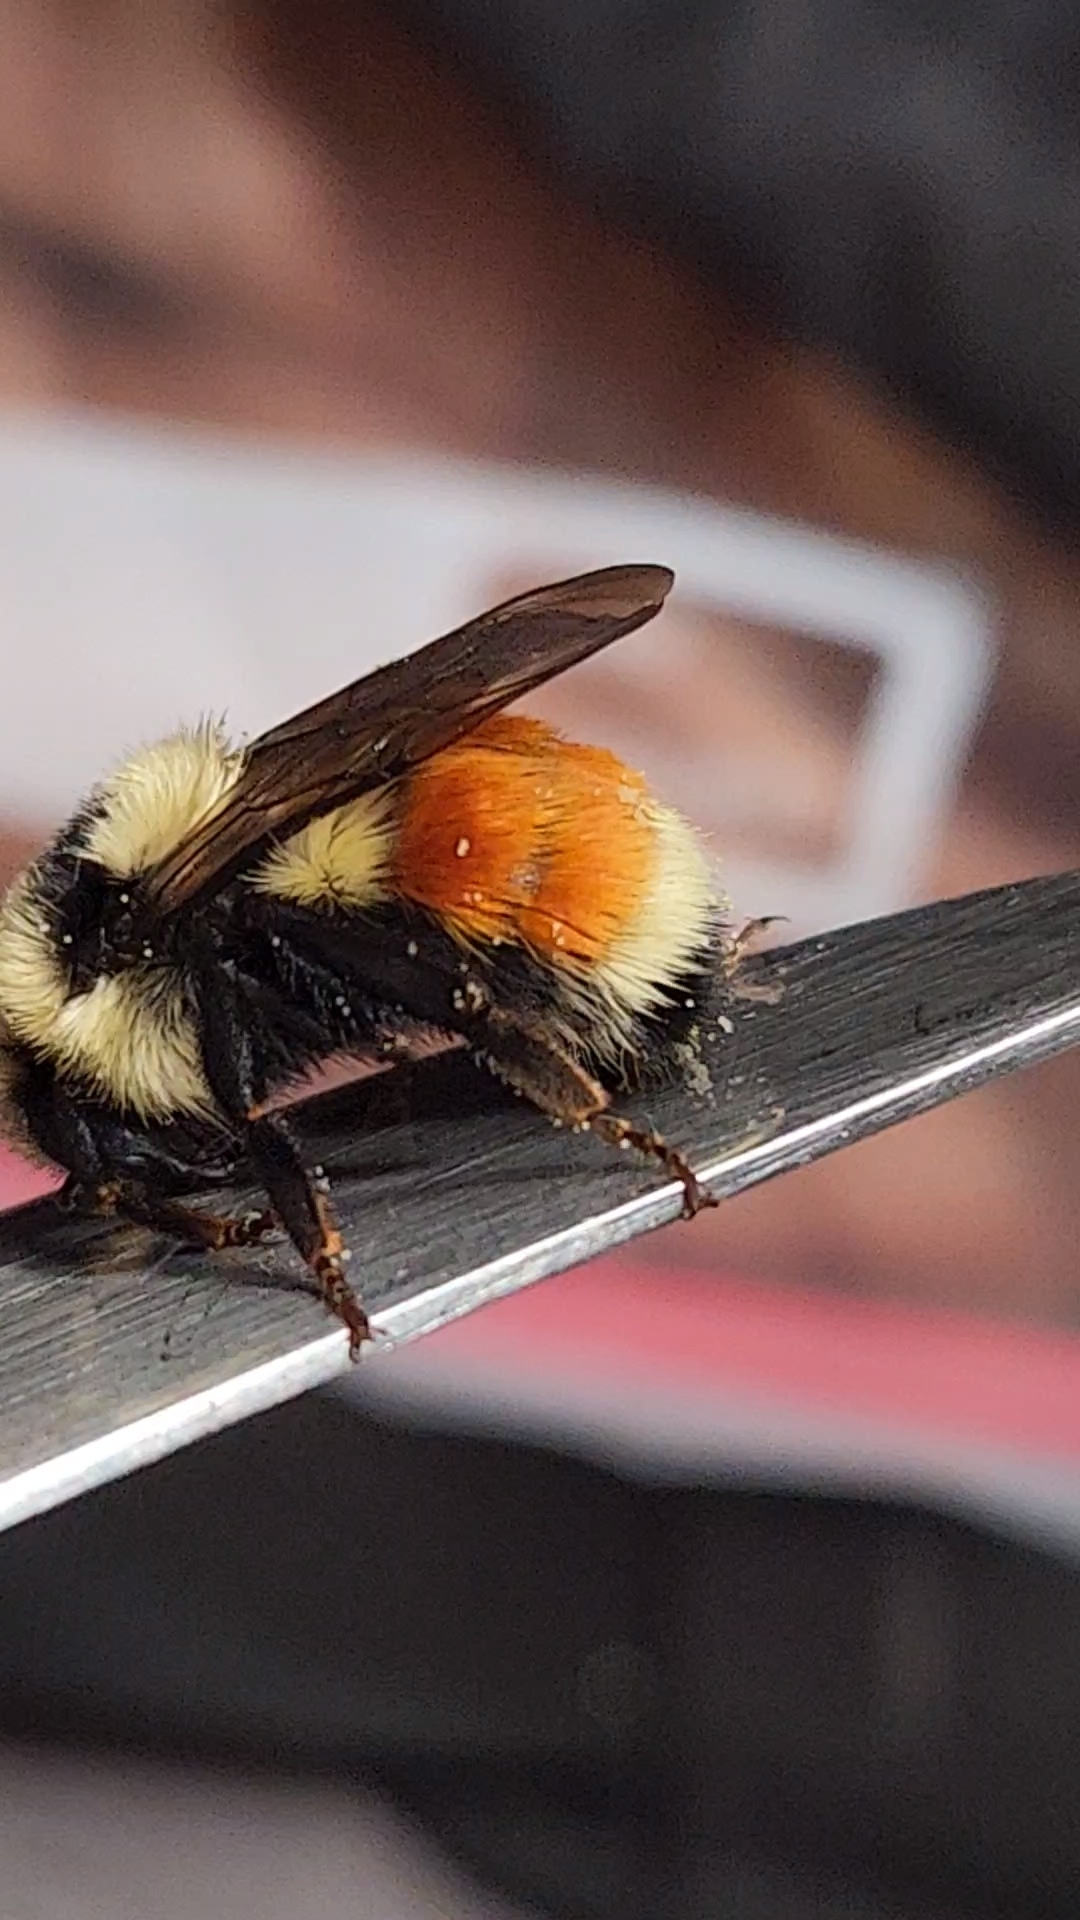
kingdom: Animalia
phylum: Arthropoda
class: Insecta
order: Hymenoptera
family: Apidae
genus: Bombus
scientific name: Bombus huntii
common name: Hunt bumble bee
